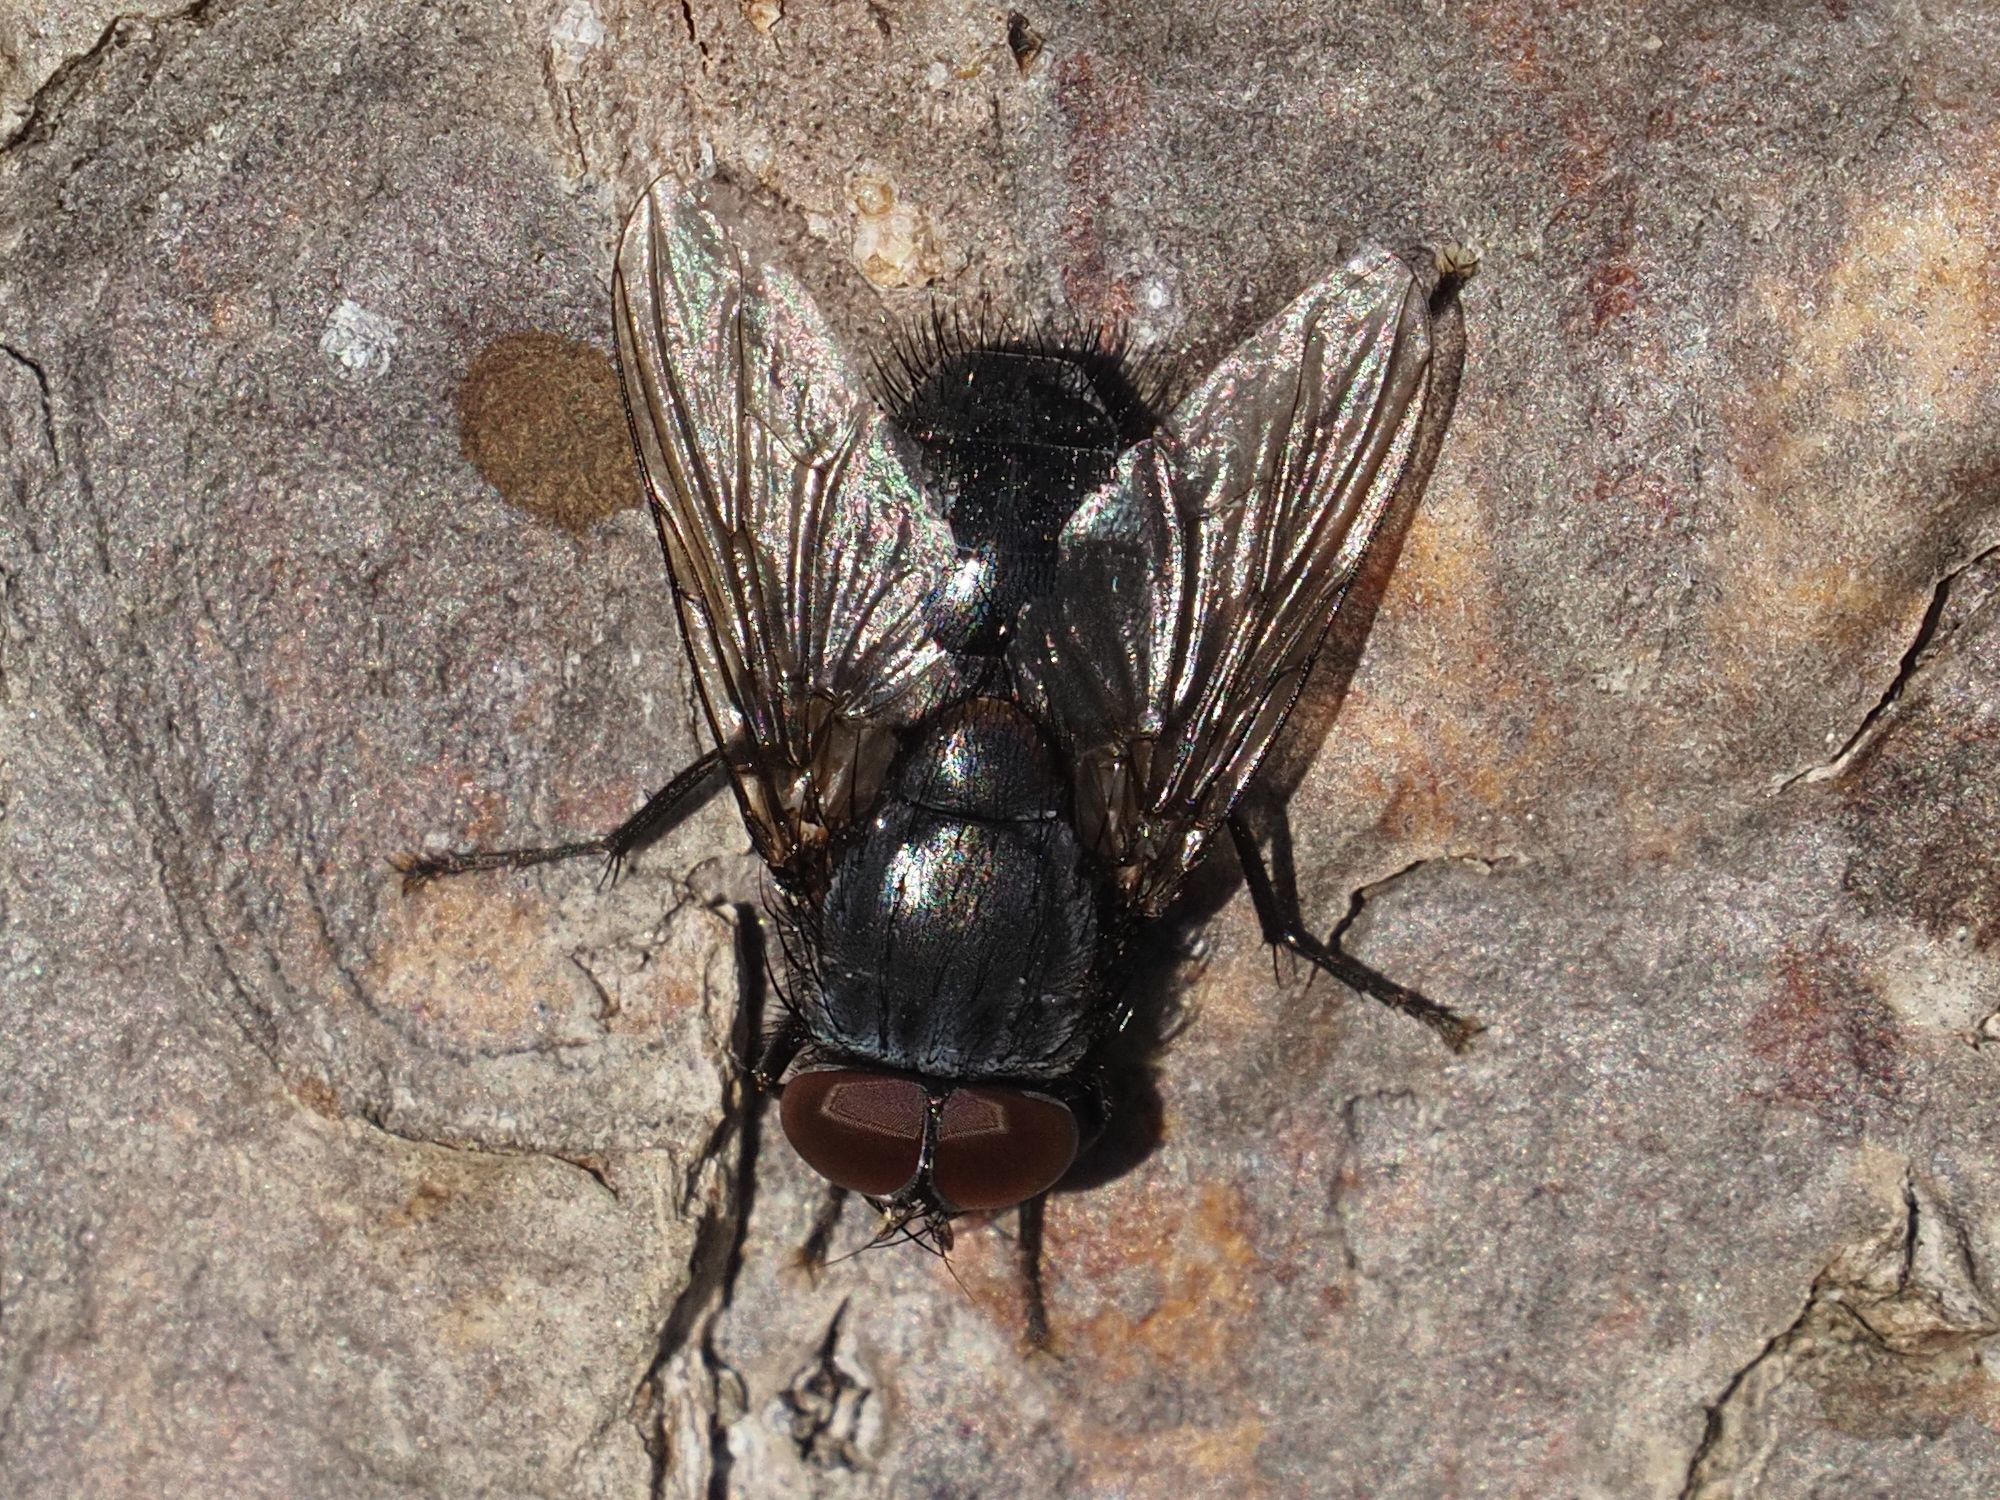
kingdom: Animalia
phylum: Arthropoda
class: Insecta
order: Diptera
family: Muscidae
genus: Muscina
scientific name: Muscina pascuorum
